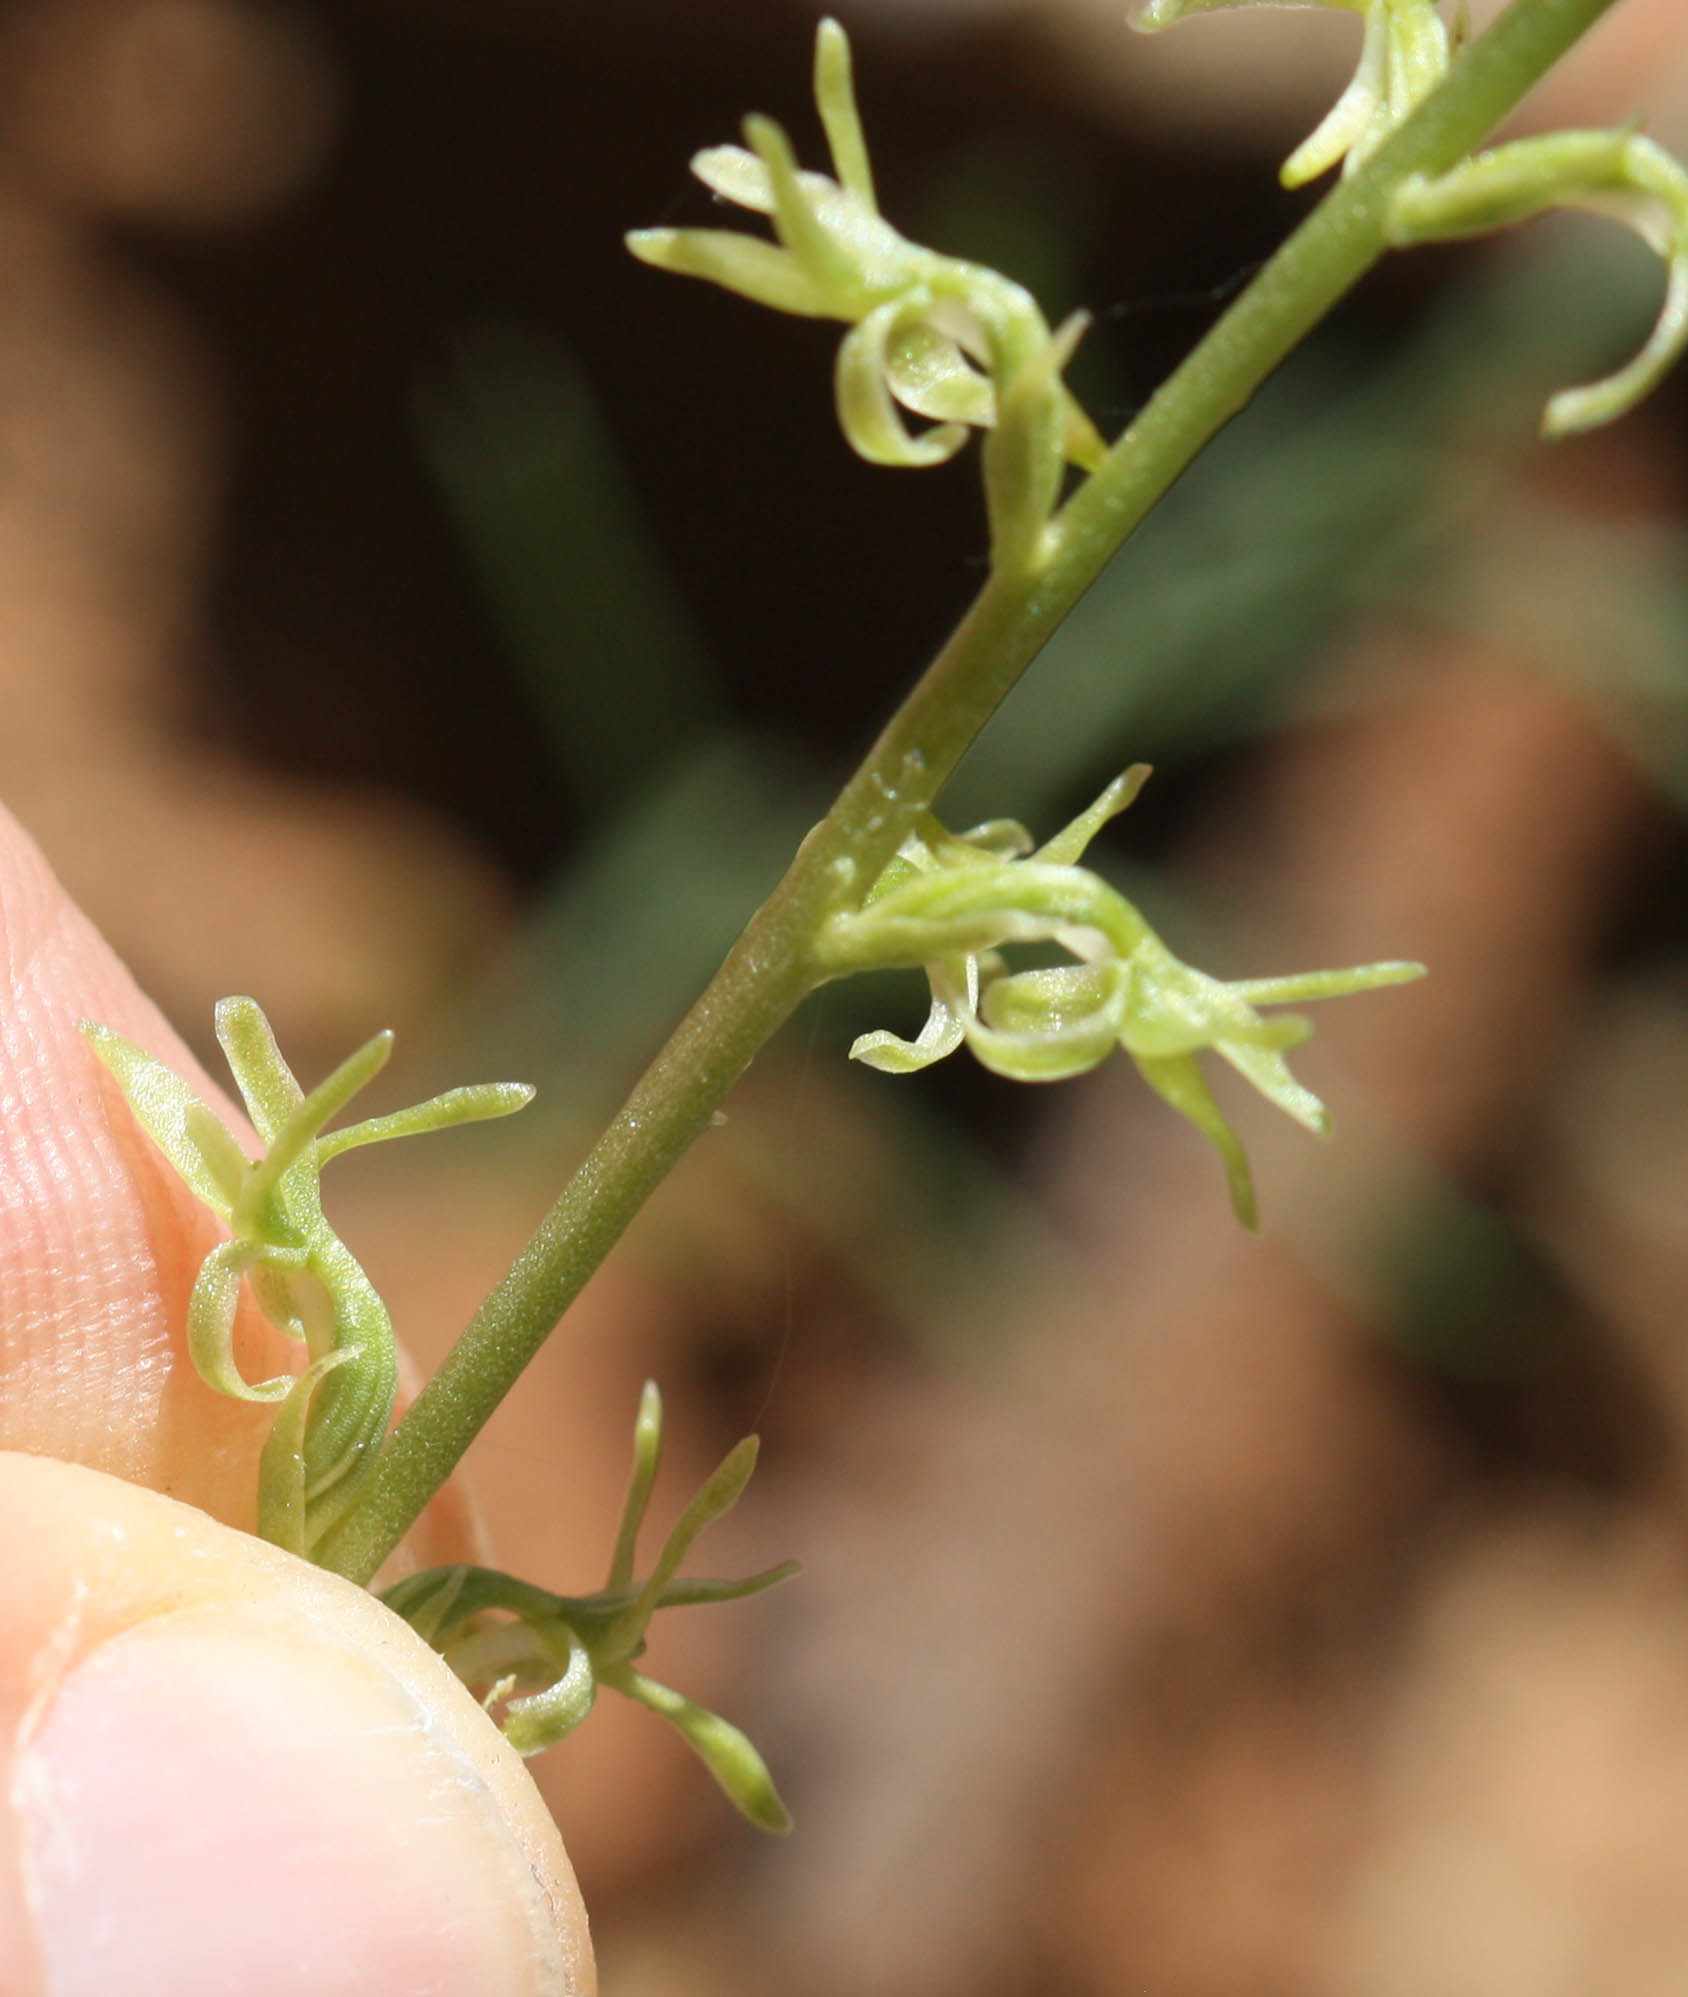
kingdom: Plantae
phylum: Tracheophyta
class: Liliopsida
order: Asparagales
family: Orchidaceae
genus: Platanthera
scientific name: Platanthera leptopetala
